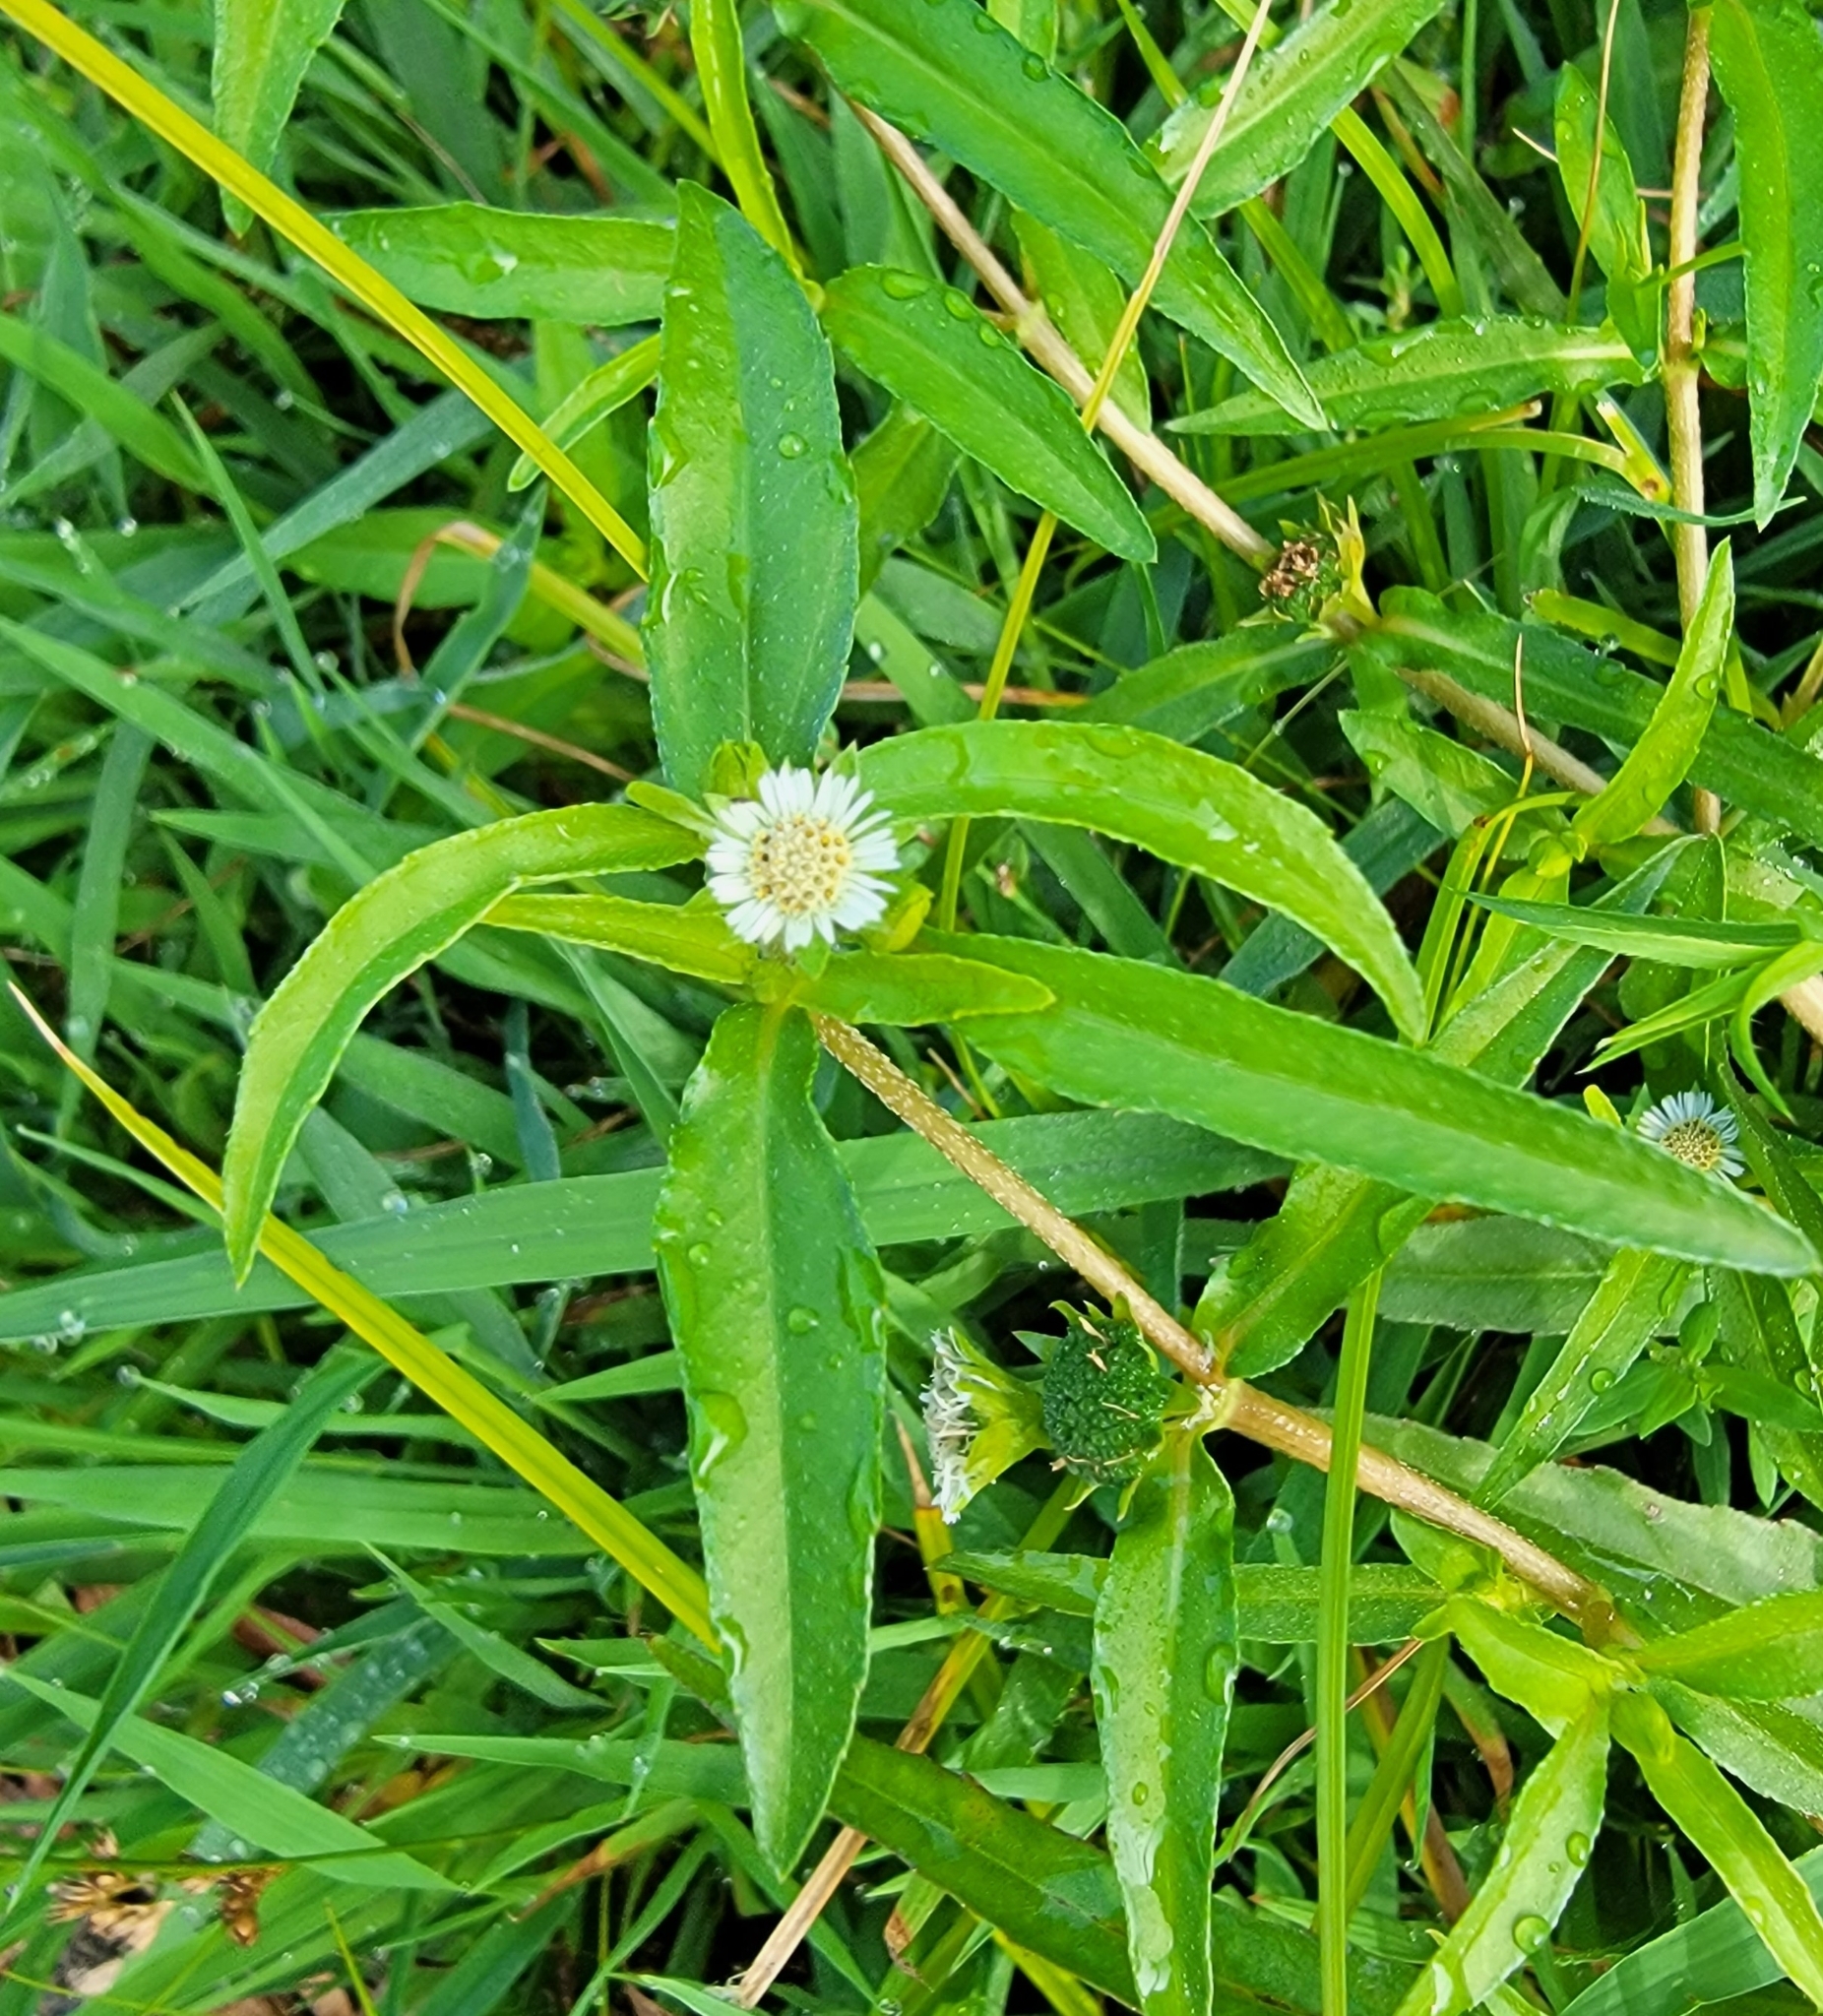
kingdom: Plantae
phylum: Tracheophyta
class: Magnoliopsida
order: Asterales
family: Asteraceae
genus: Eclipta
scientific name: Eclipta prostrata
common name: False daisy
